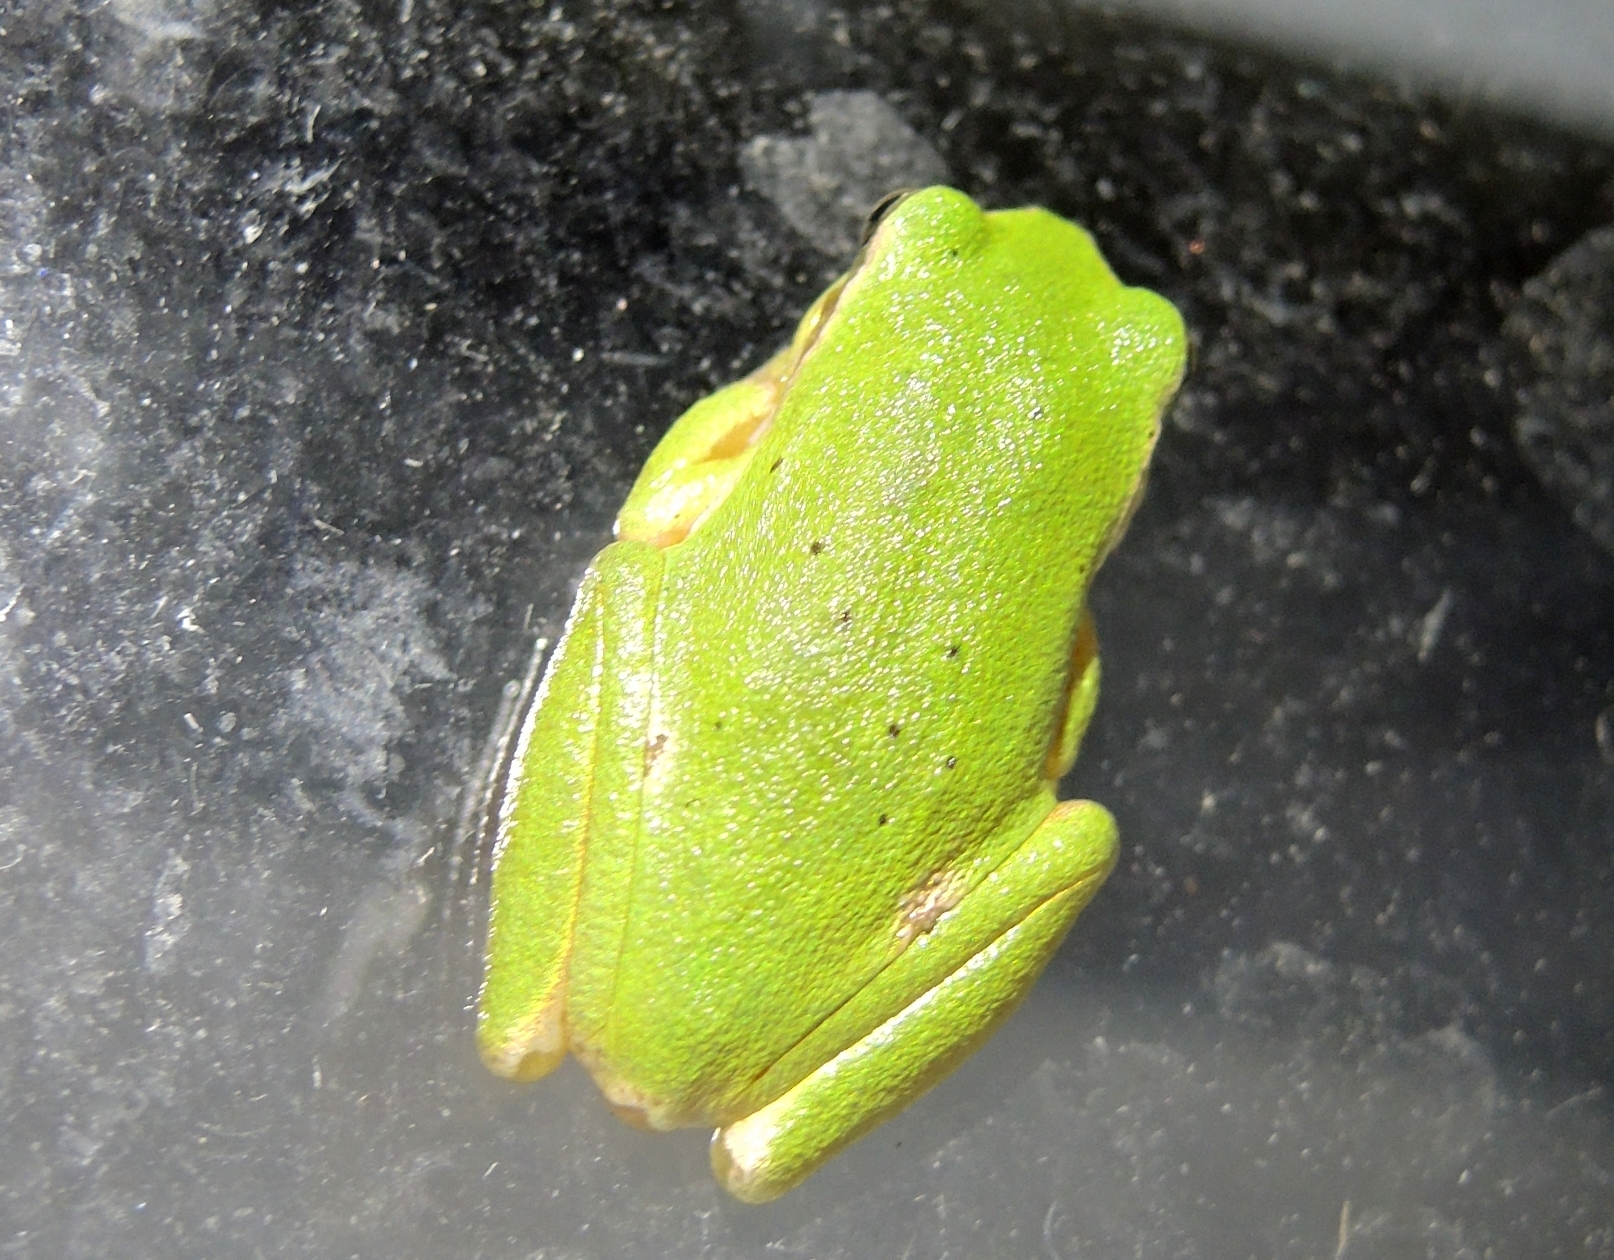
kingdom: Animalia
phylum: Chordata
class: Amphibia
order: Anura
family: Hylidae
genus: Hyla
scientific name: Hyla orientalis
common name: Caucasian treefrog
